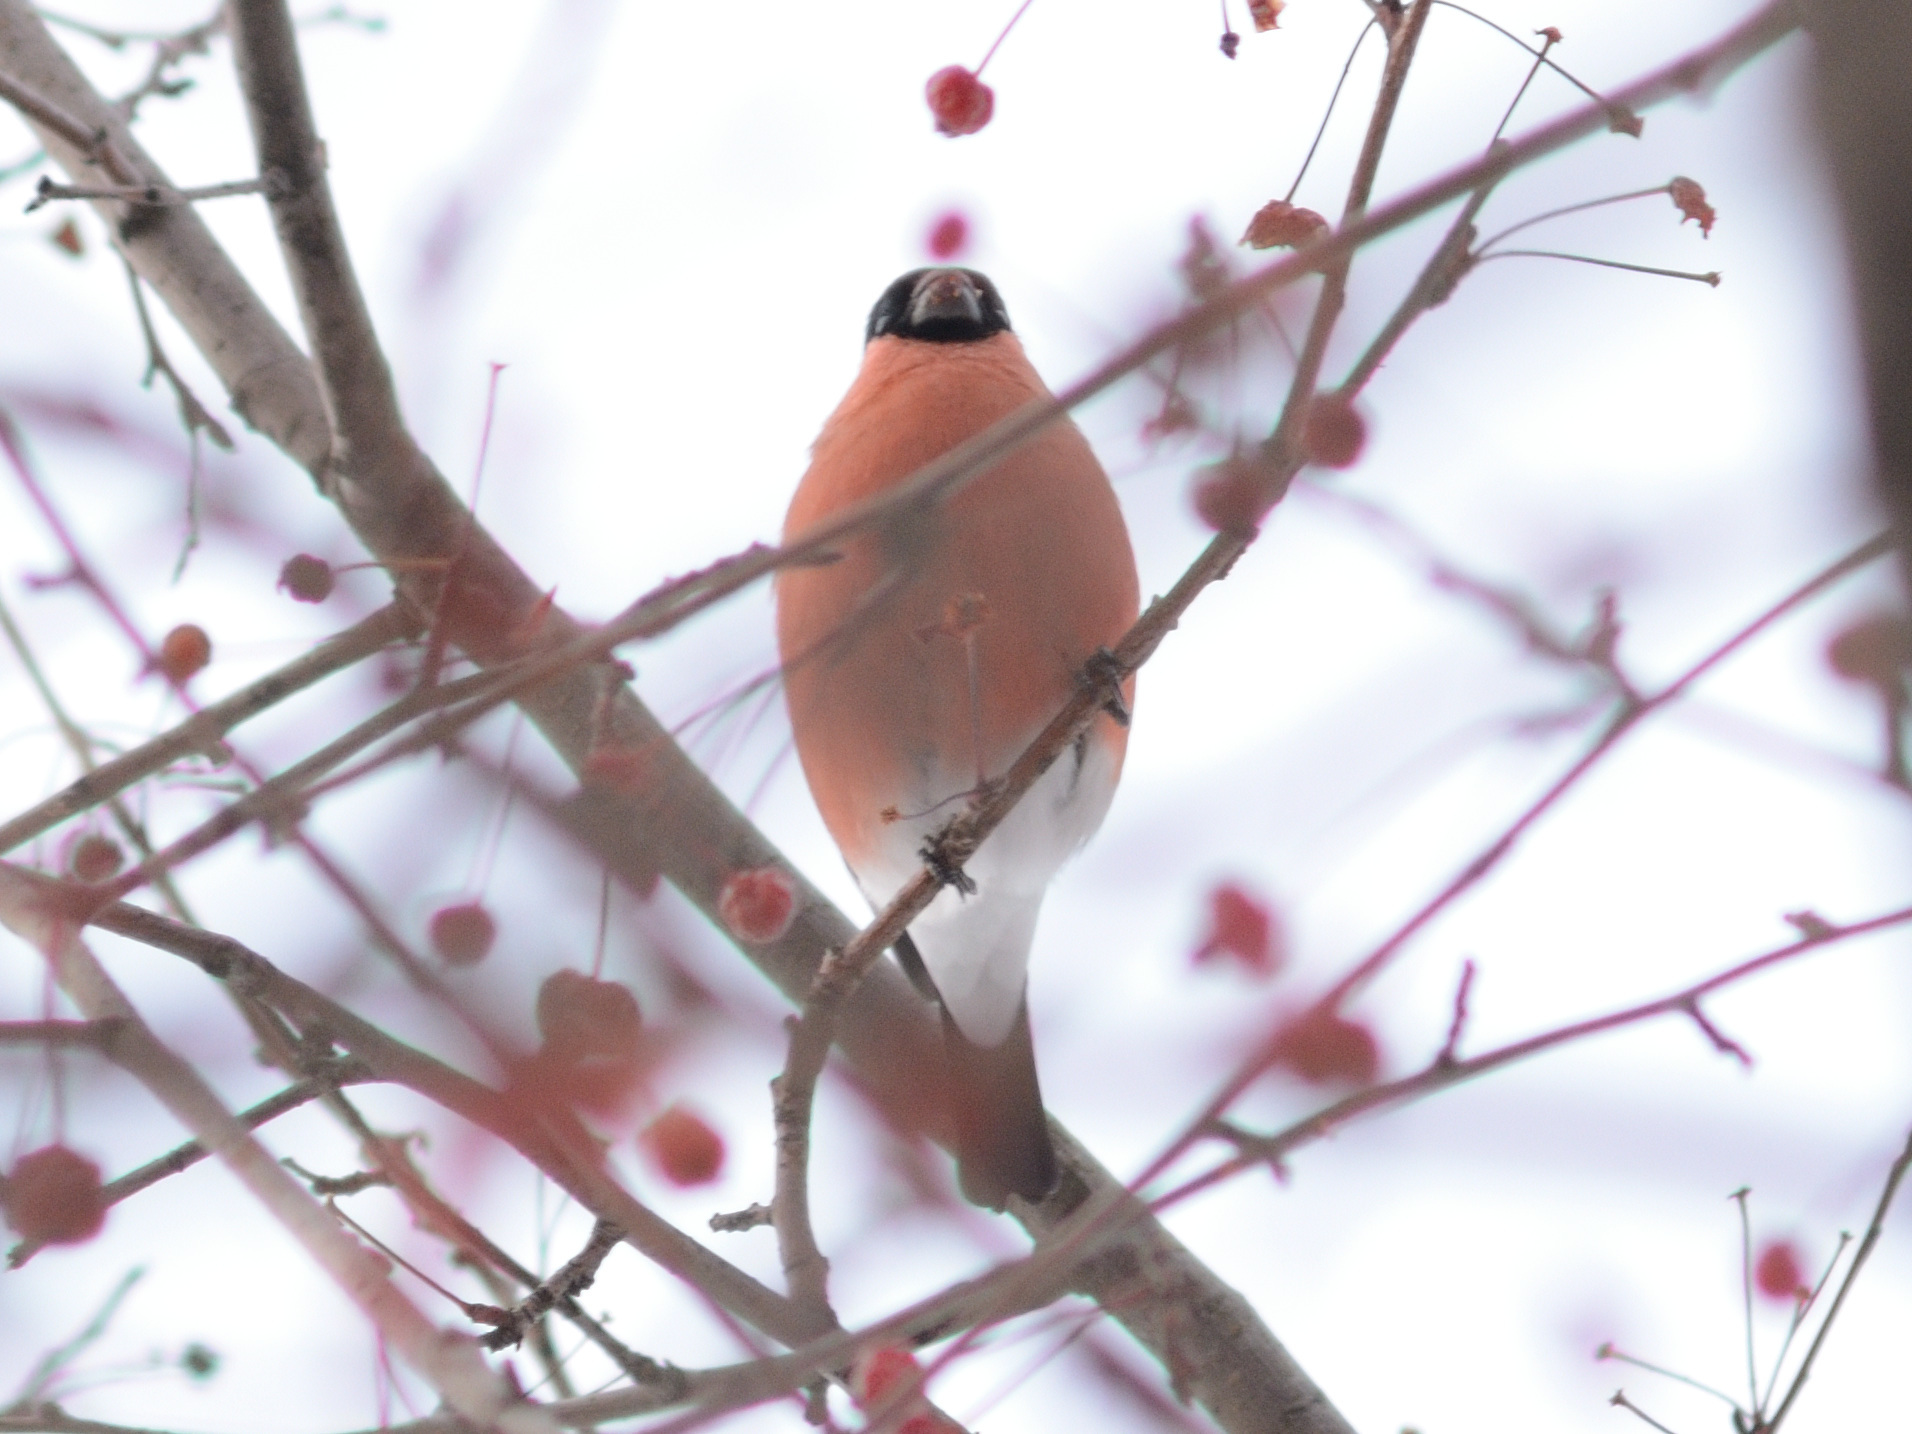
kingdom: Animalia
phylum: Chordata
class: Aves
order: Passeriformes
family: Fringillidae
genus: Pyrrhula
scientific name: Pyrrhula pyrrhula
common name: Eurasian bullfinch
